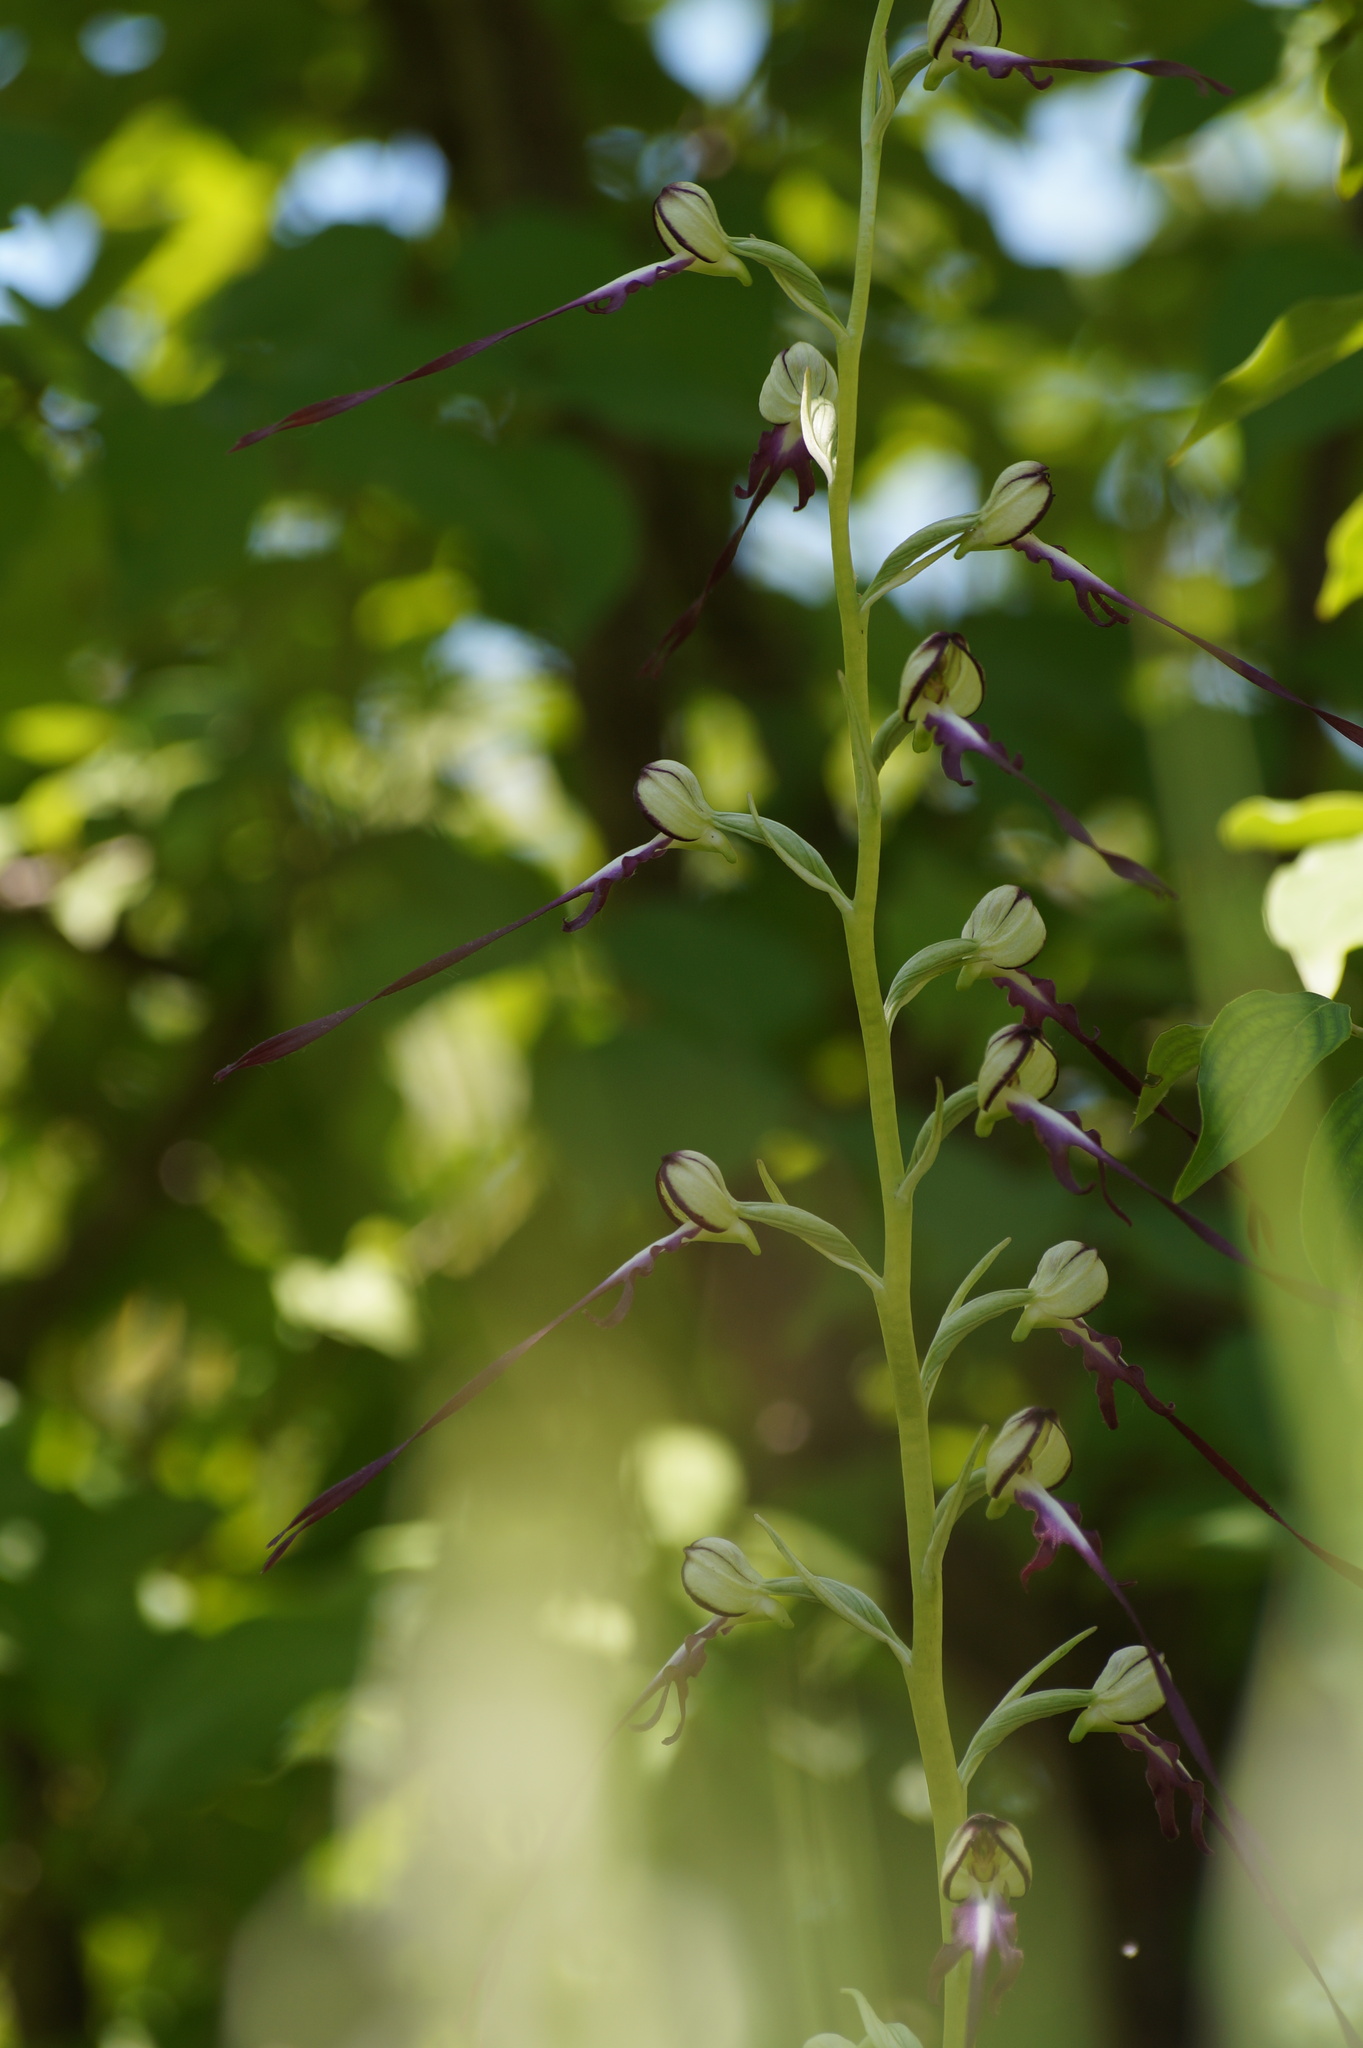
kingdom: Plantae
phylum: Tracheophyta
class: Liliopsida
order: Asparagales
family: Orchidaceae
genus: Himantoglossum
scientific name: Himantoglossum caprinum
